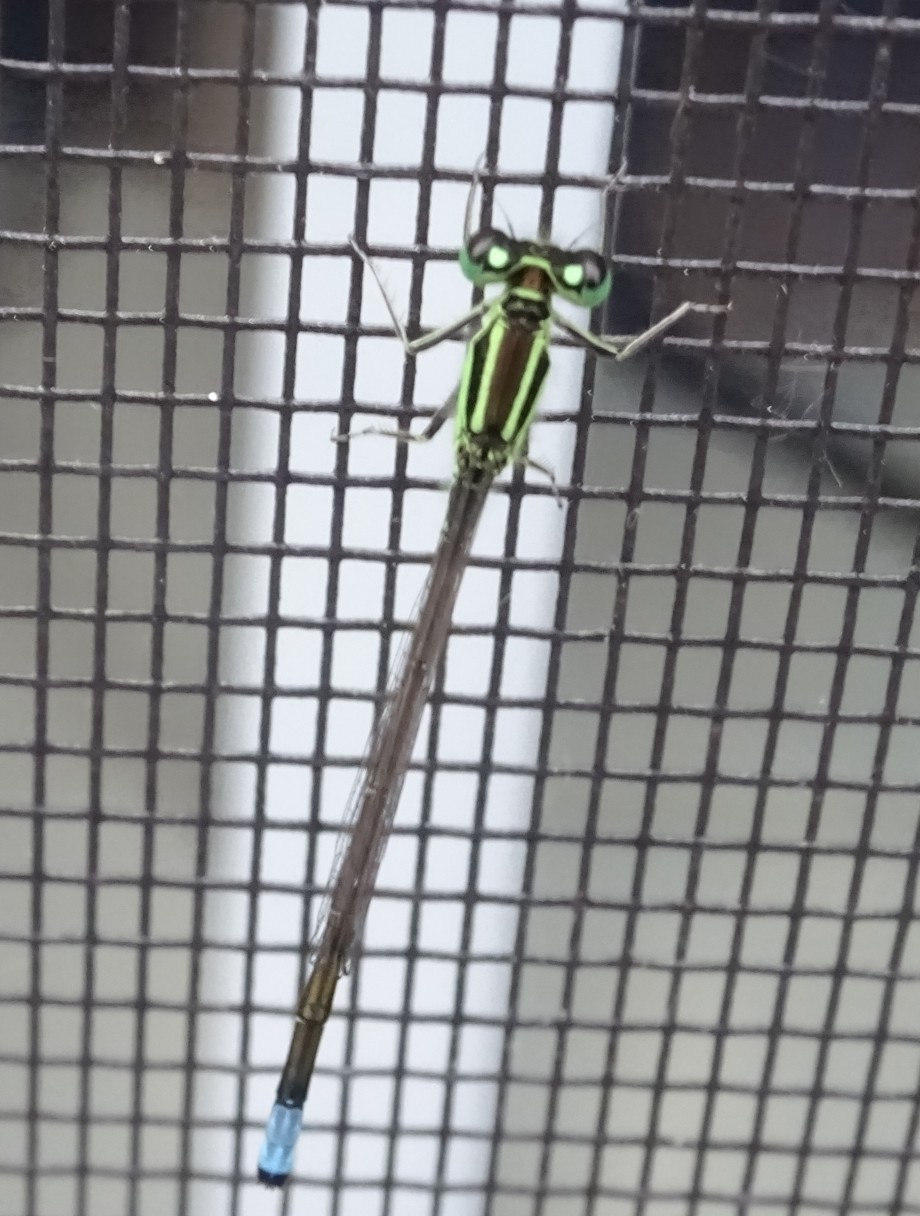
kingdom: Animalia
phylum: Arthropoda
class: Insecta
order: Odonata
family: Coenagrionidae
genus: Ischnura
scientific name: Ischnura verticalis
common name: Eastern forktail
